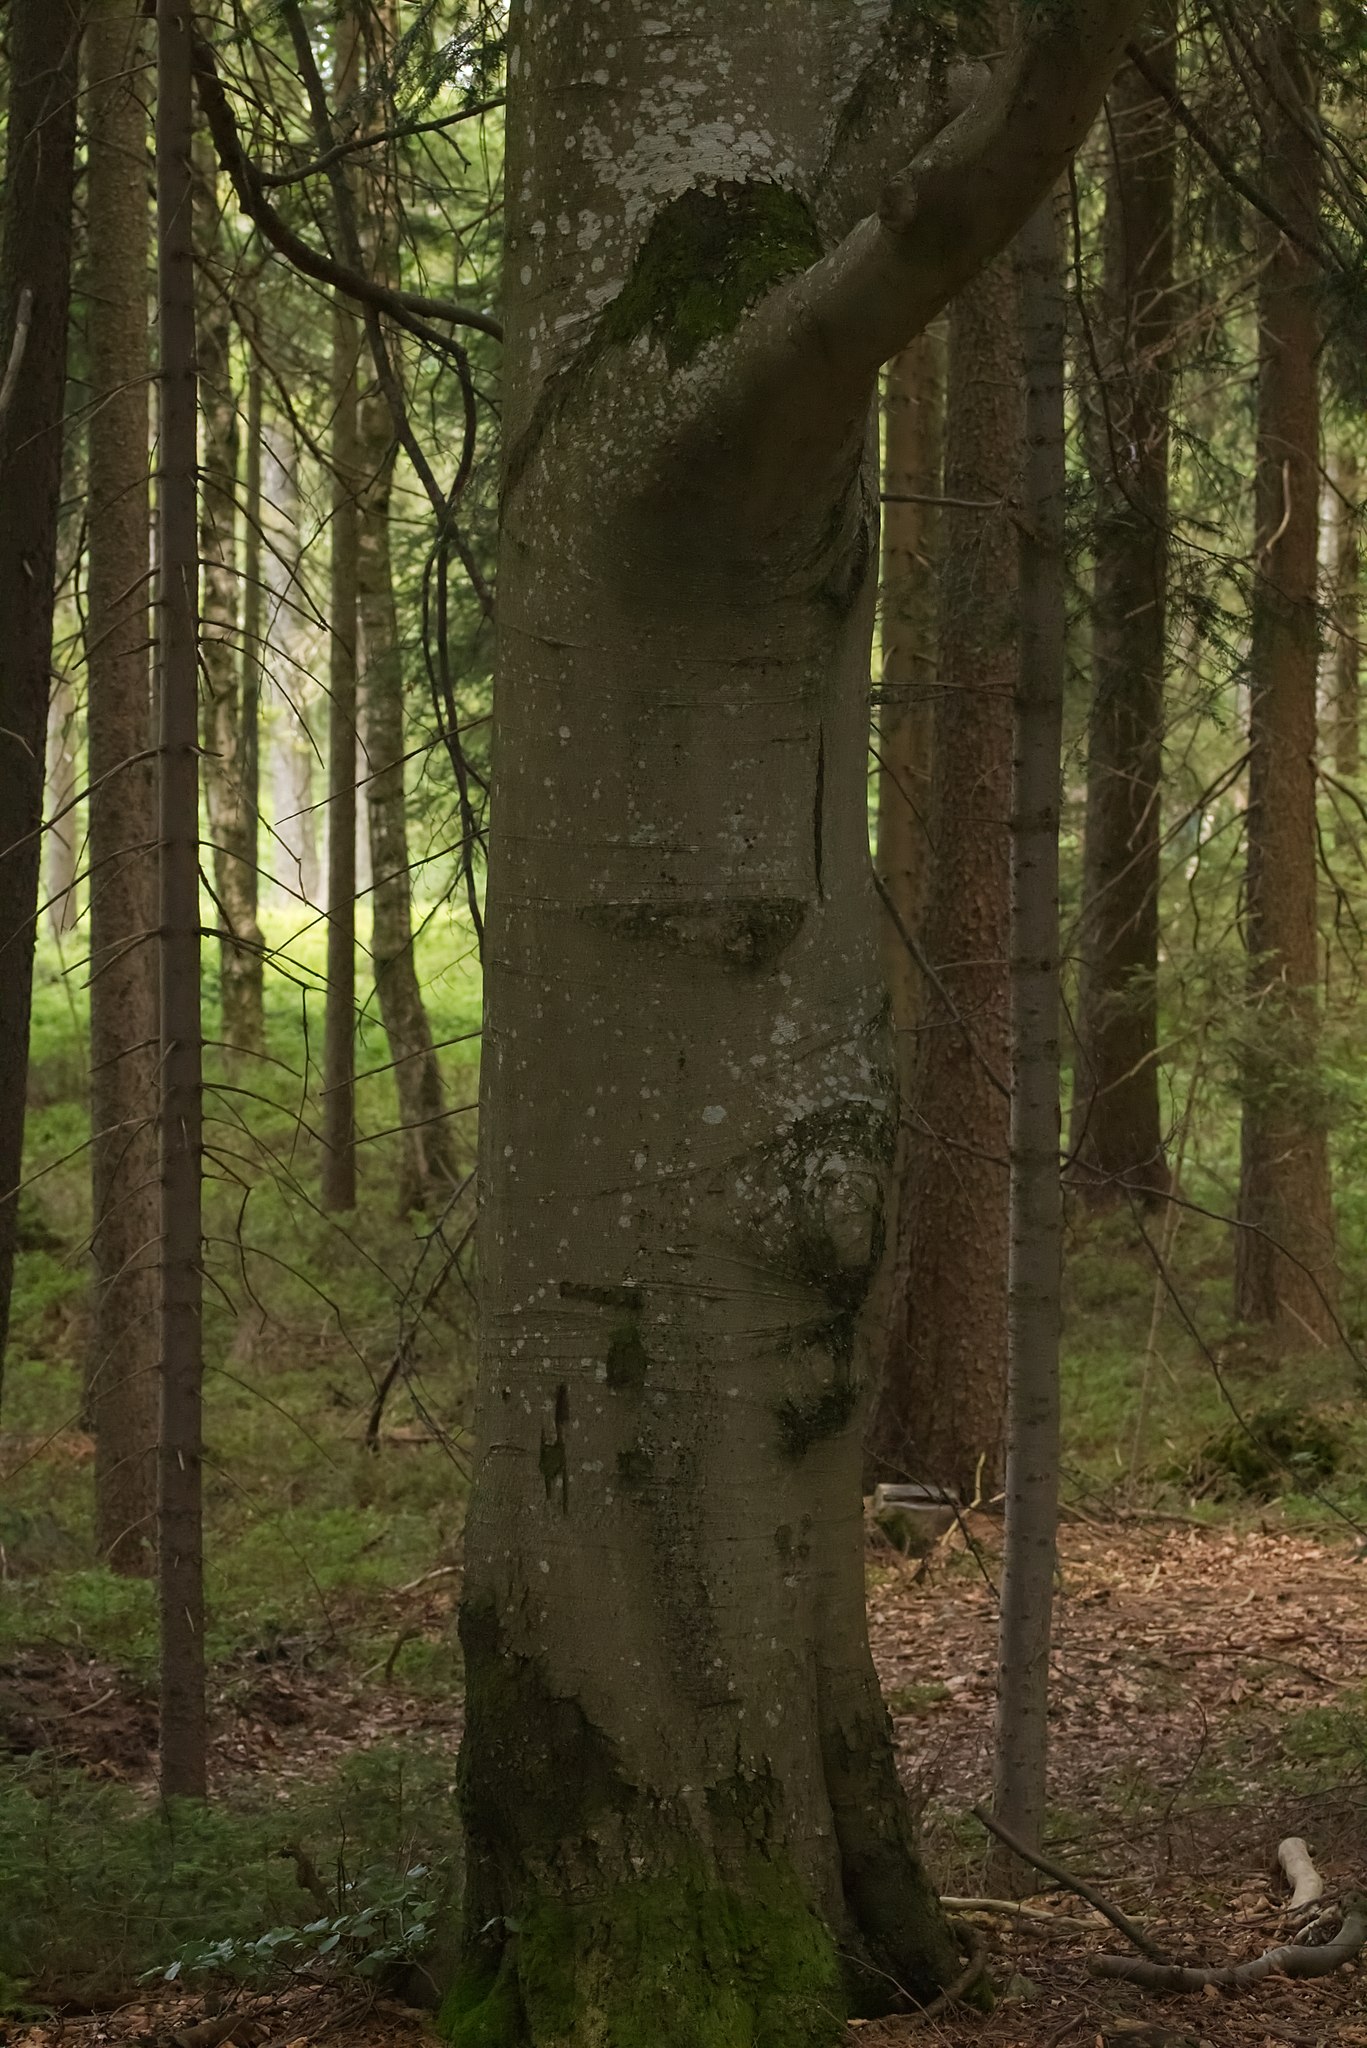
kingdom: Plantae
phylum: Tracheophyta
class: Magnoliopsida
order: Fagales
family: Fagaceae
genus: Fagus
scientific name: Fagus sylvatica
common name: Beech
